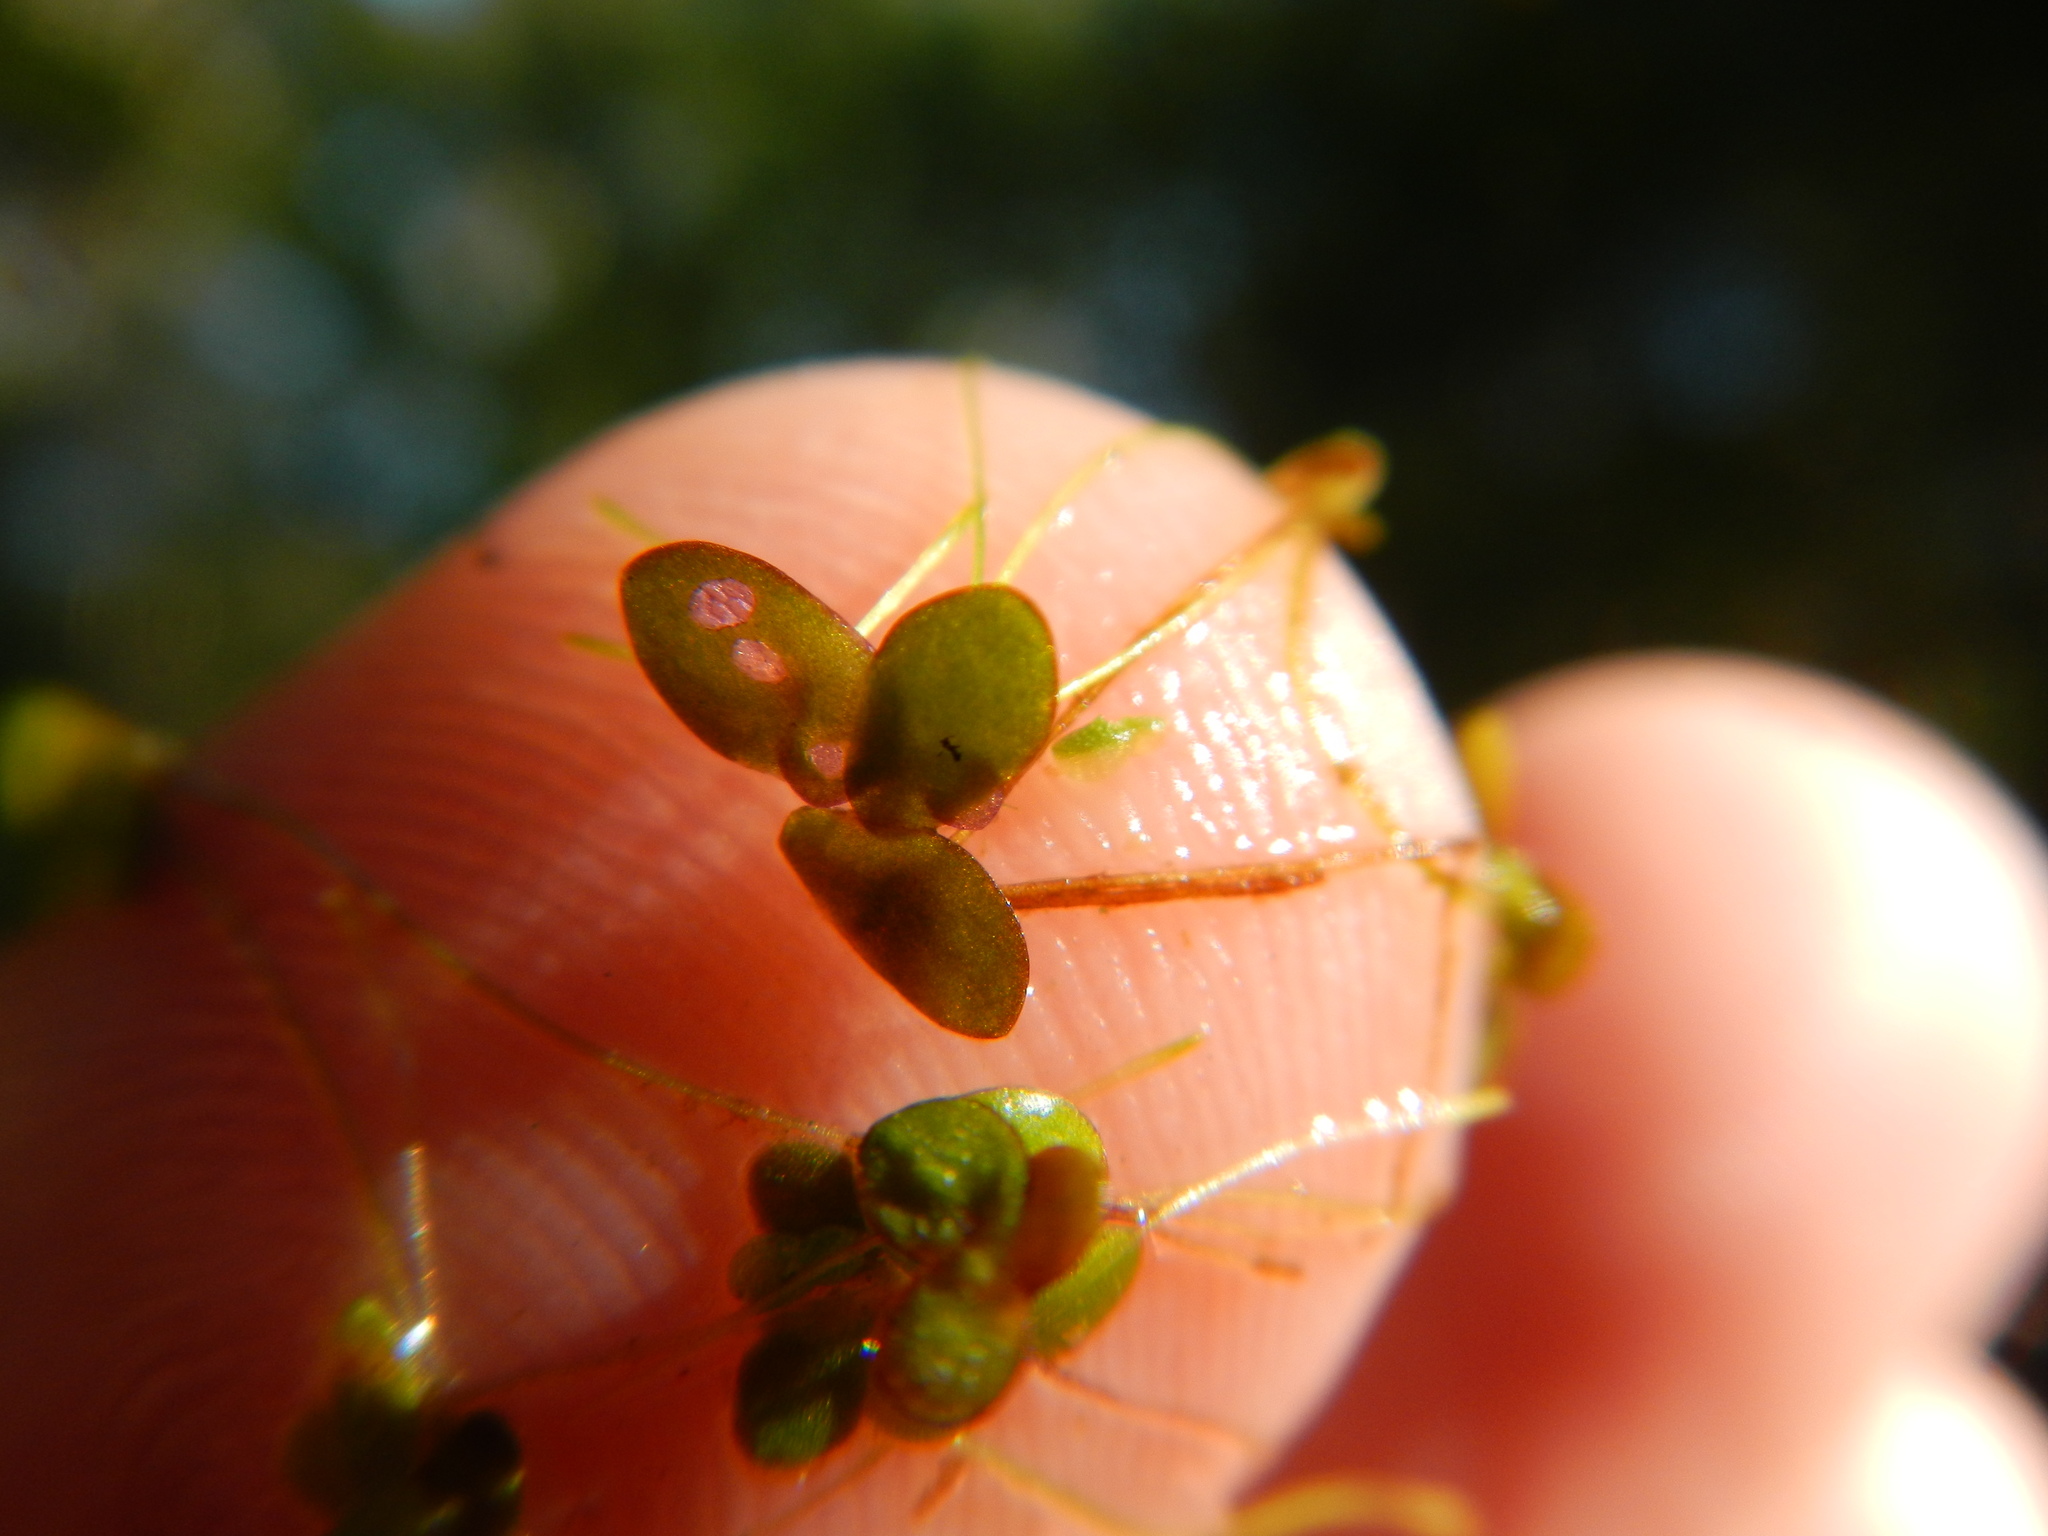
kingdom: Plantae
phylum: Tracheophyta
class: Liliopsida
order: Alismatales
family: Araceae
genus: Lemna
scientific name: Lemna obscura
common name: Little duckweed
